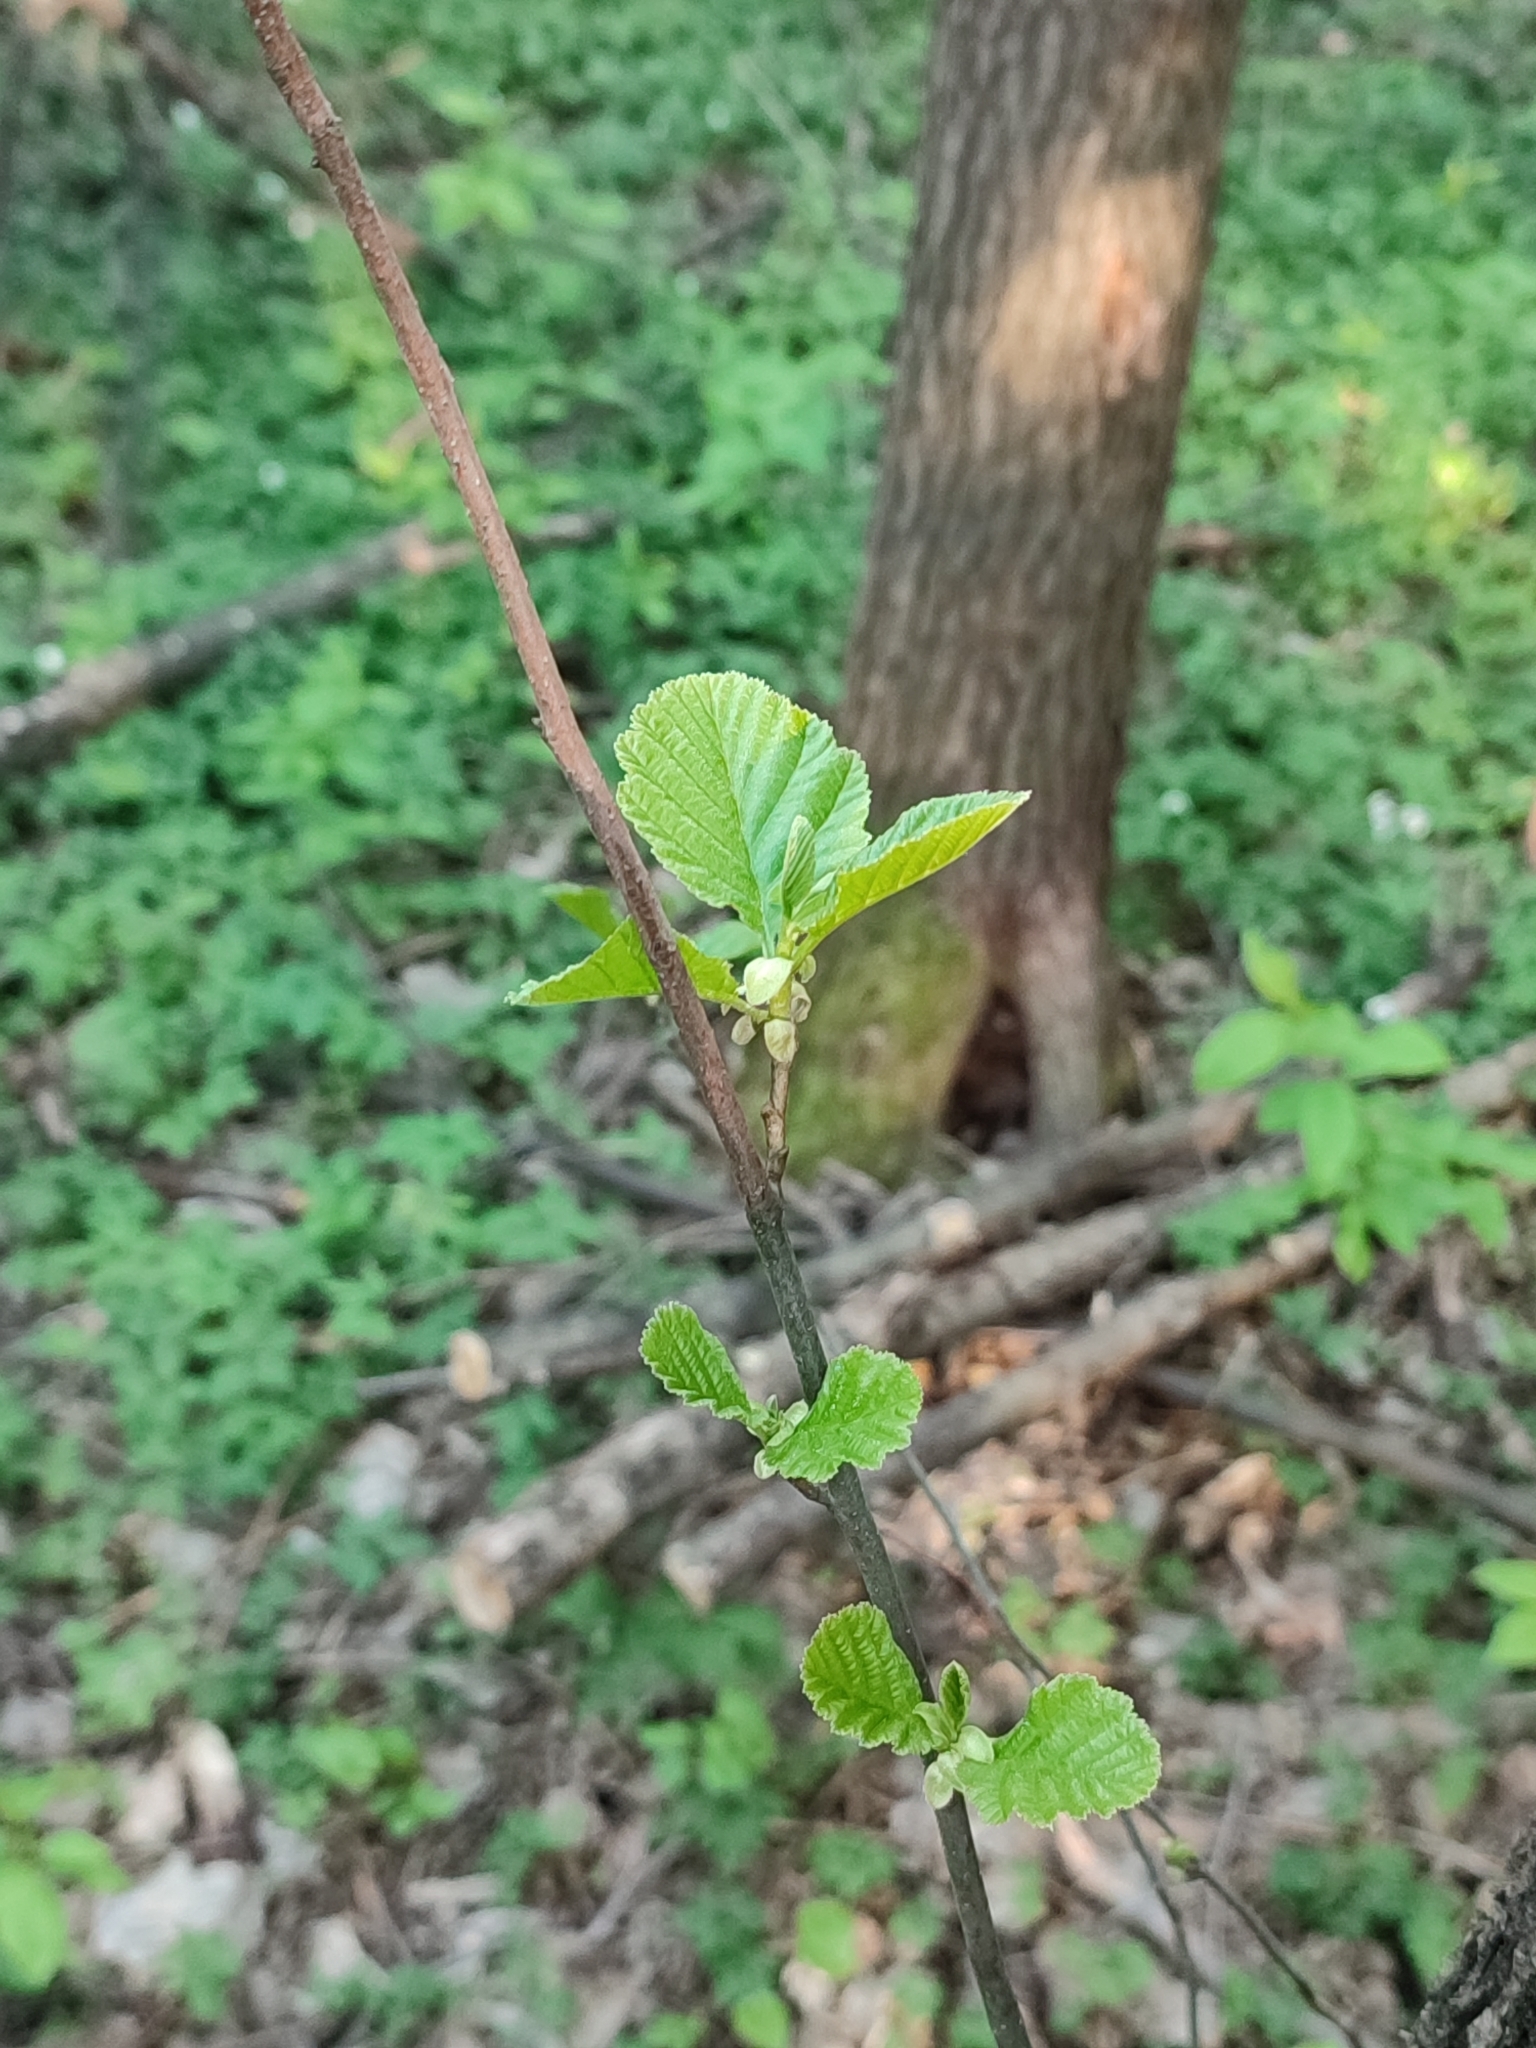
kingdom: Plantae
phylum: Tracheophyta
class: Magnoliopsida
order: Fagales
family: Betulaceae
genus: Alnus
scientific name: Alnus glutinosa
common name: Black alder
